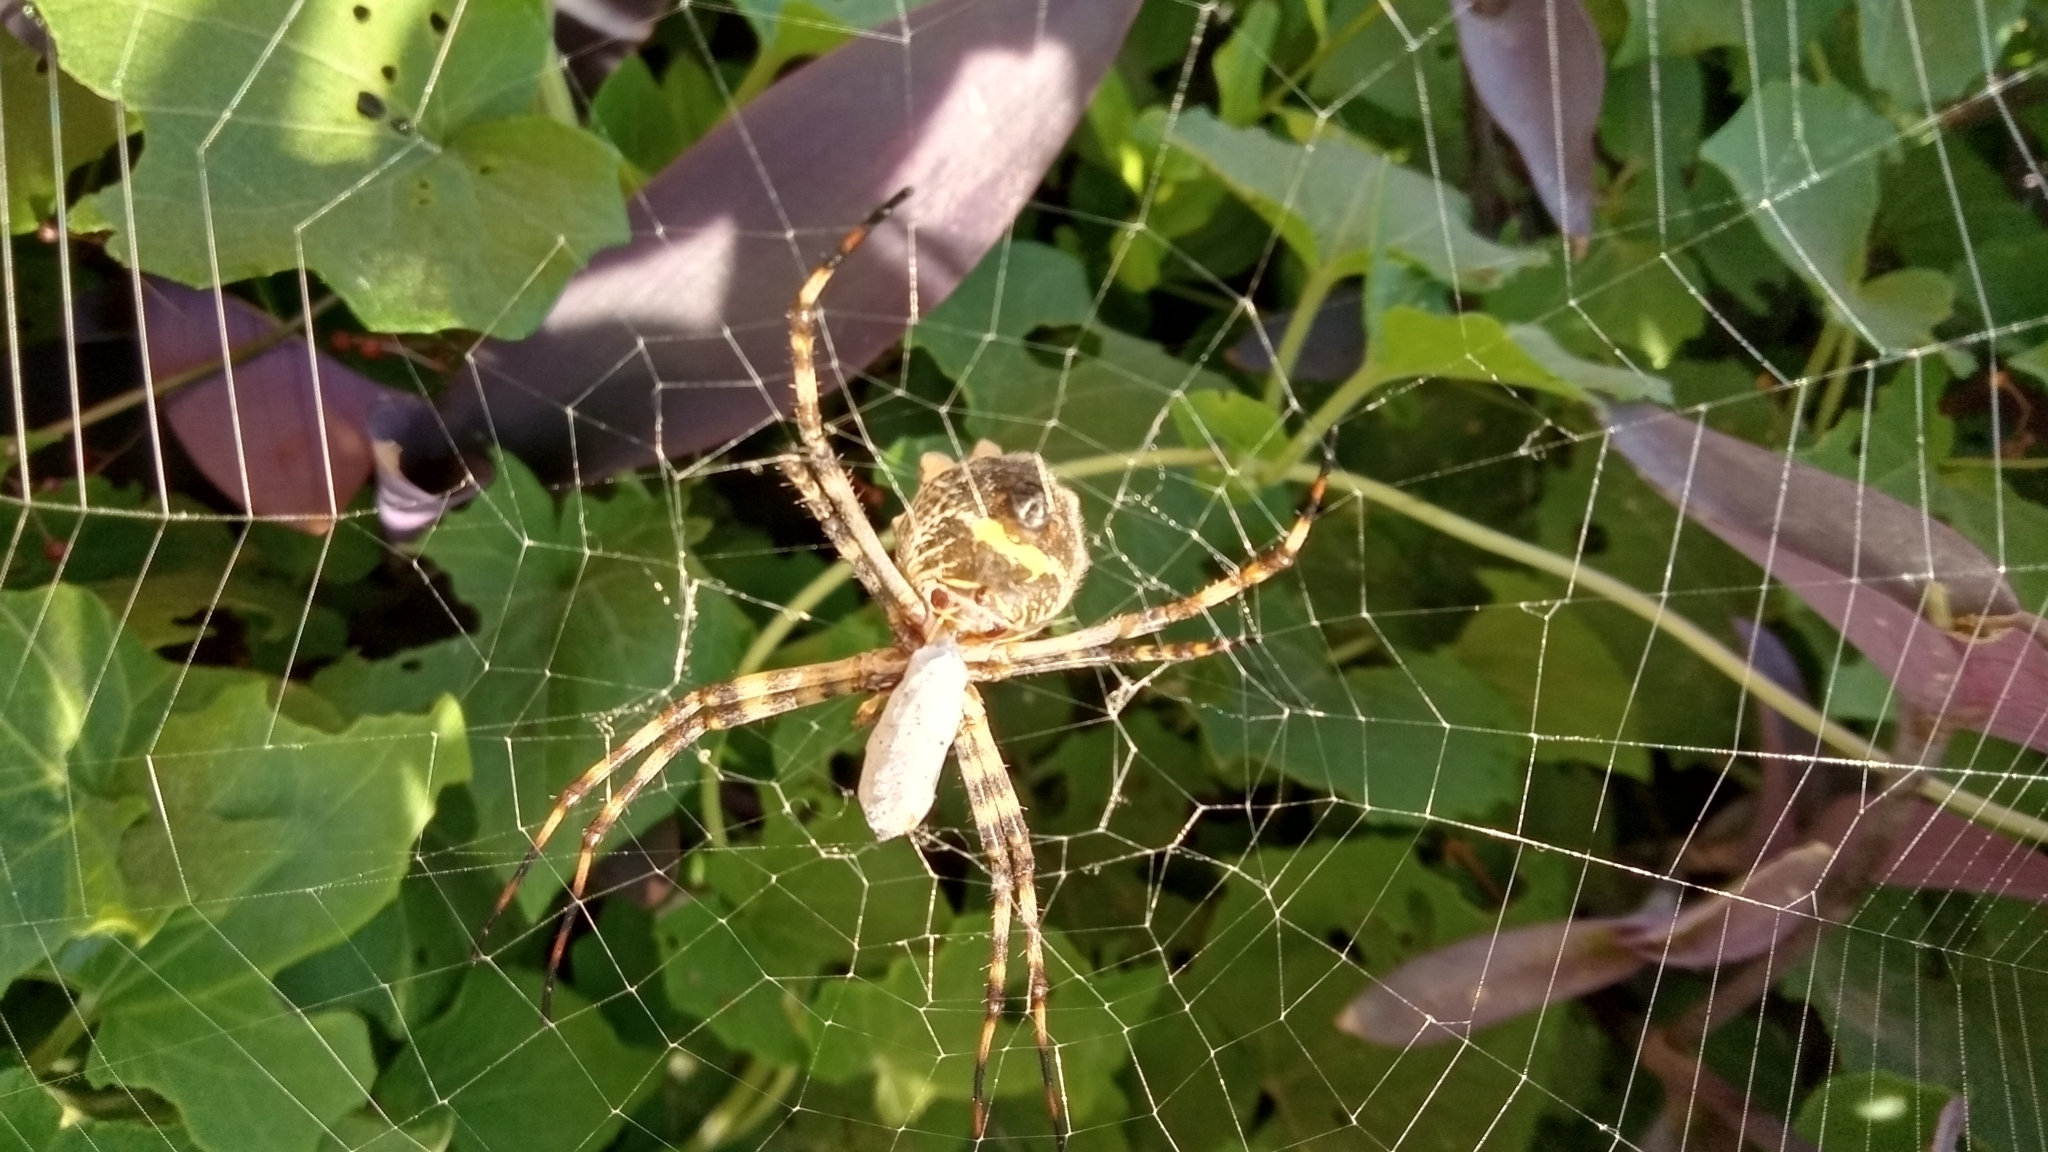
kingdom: Animalia
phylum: Arthropoda
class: Arachnida
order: Araneae
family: Araneidae
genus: Argiope
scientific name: Argiope argentata
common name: Orb weavers
